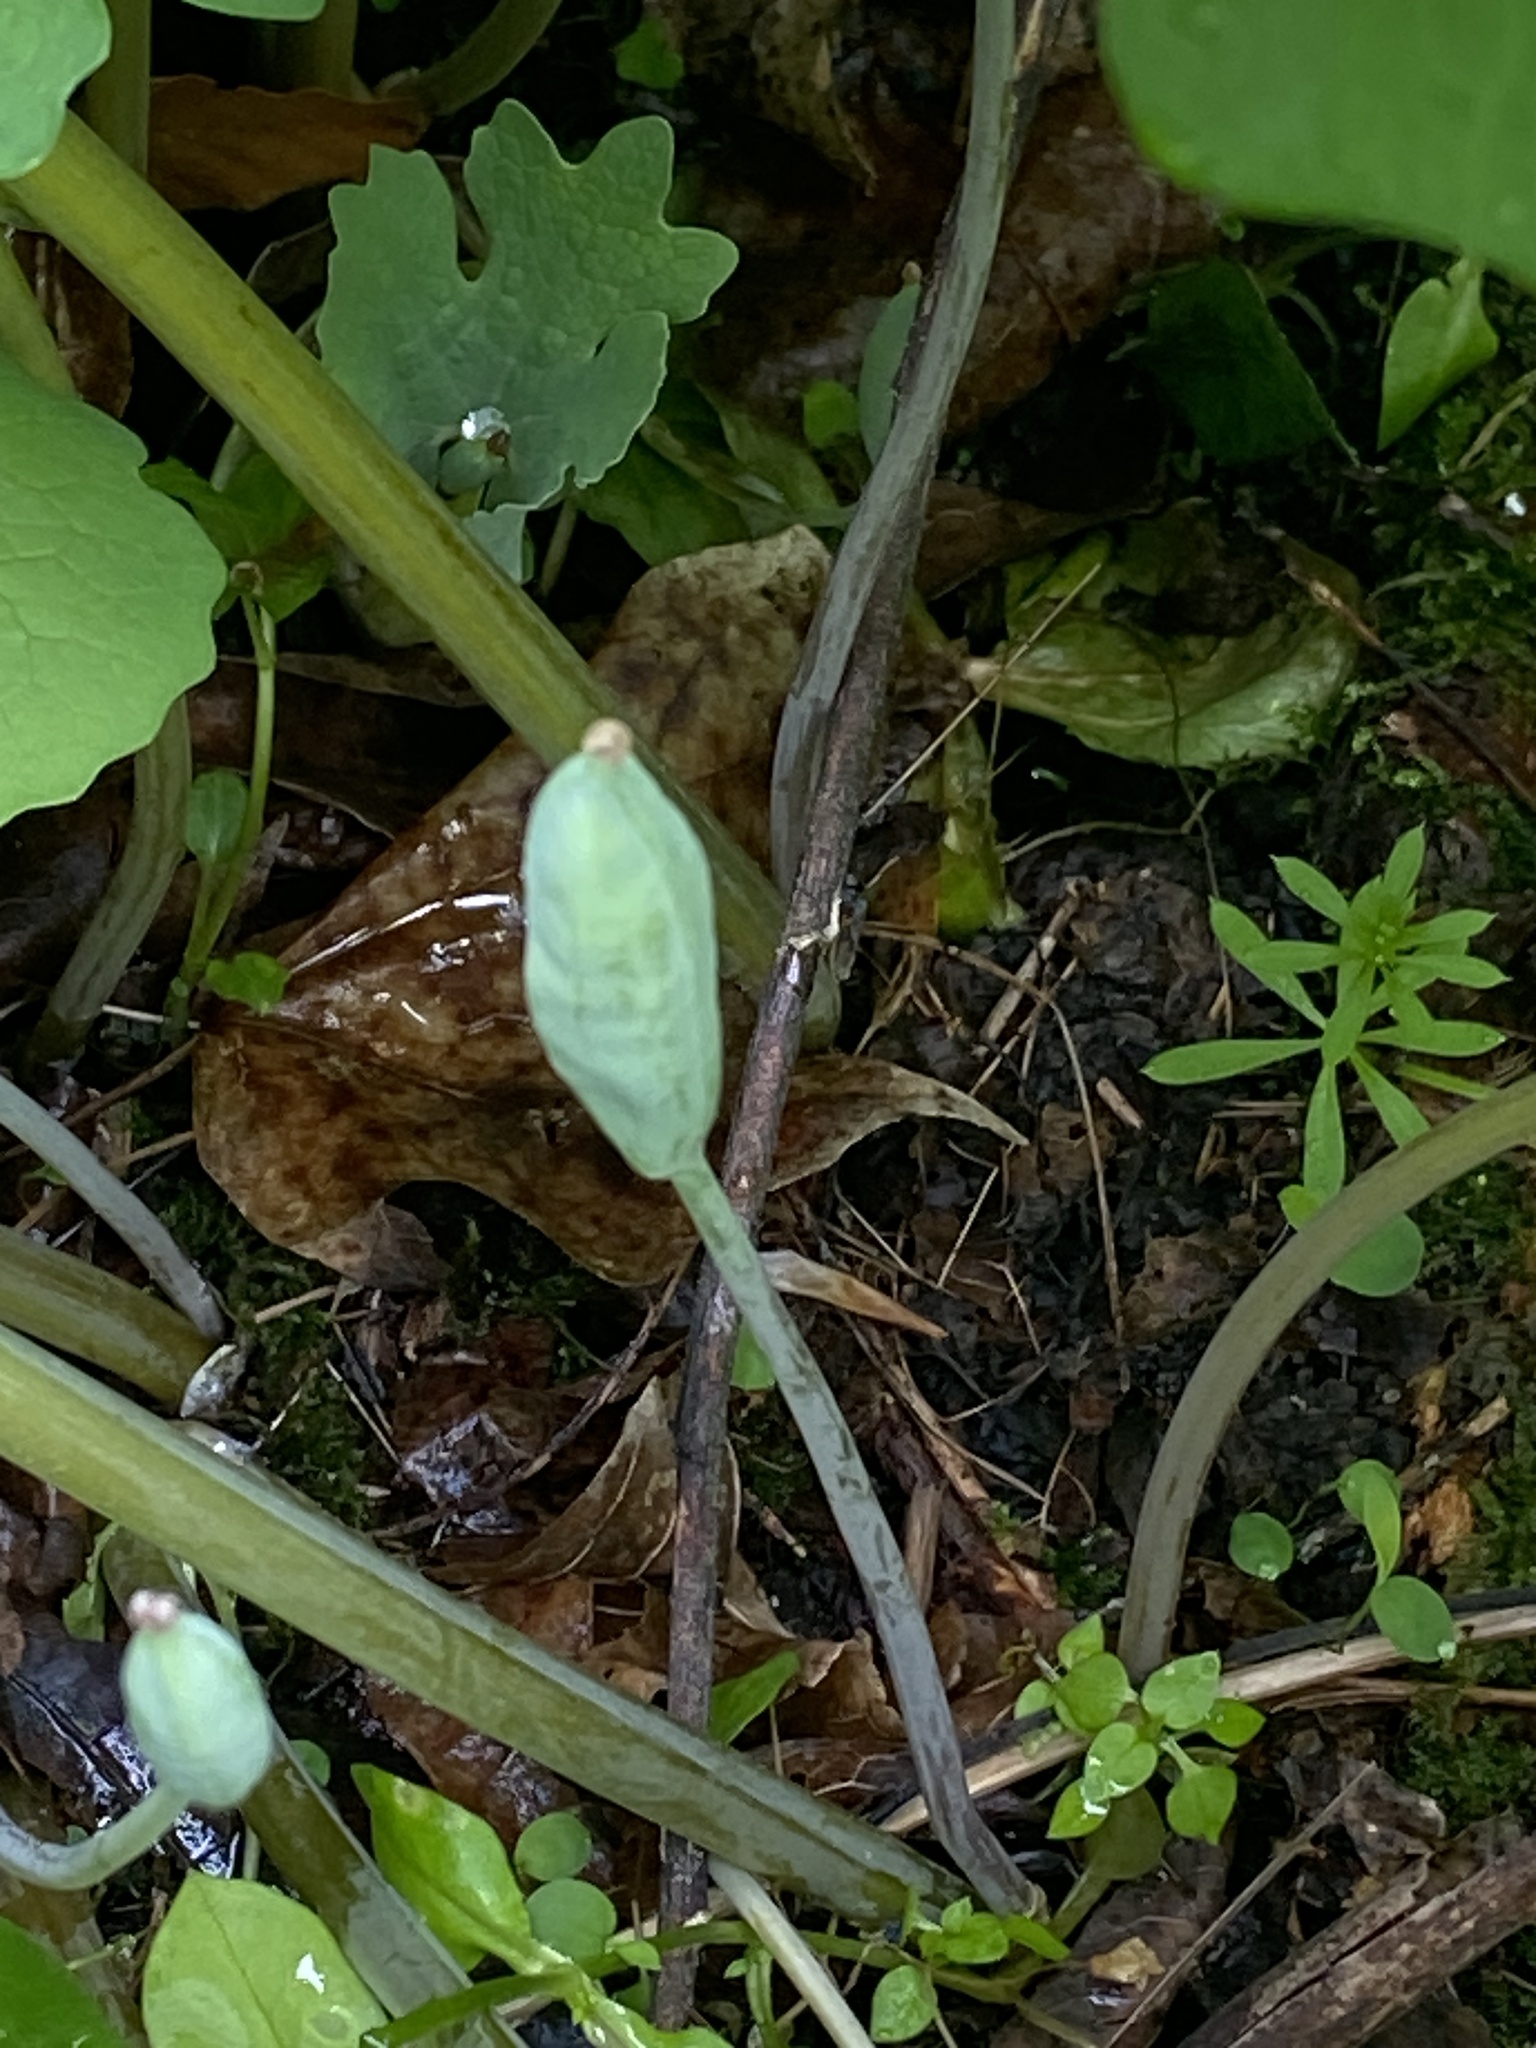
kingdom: Plantae
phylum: Tracheophyta
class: Magnoliopsida
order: Ranunculales
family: Papaveraceae
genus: Sanguinaria
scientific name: Sanguinaria canadensis
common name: Bloodroot
